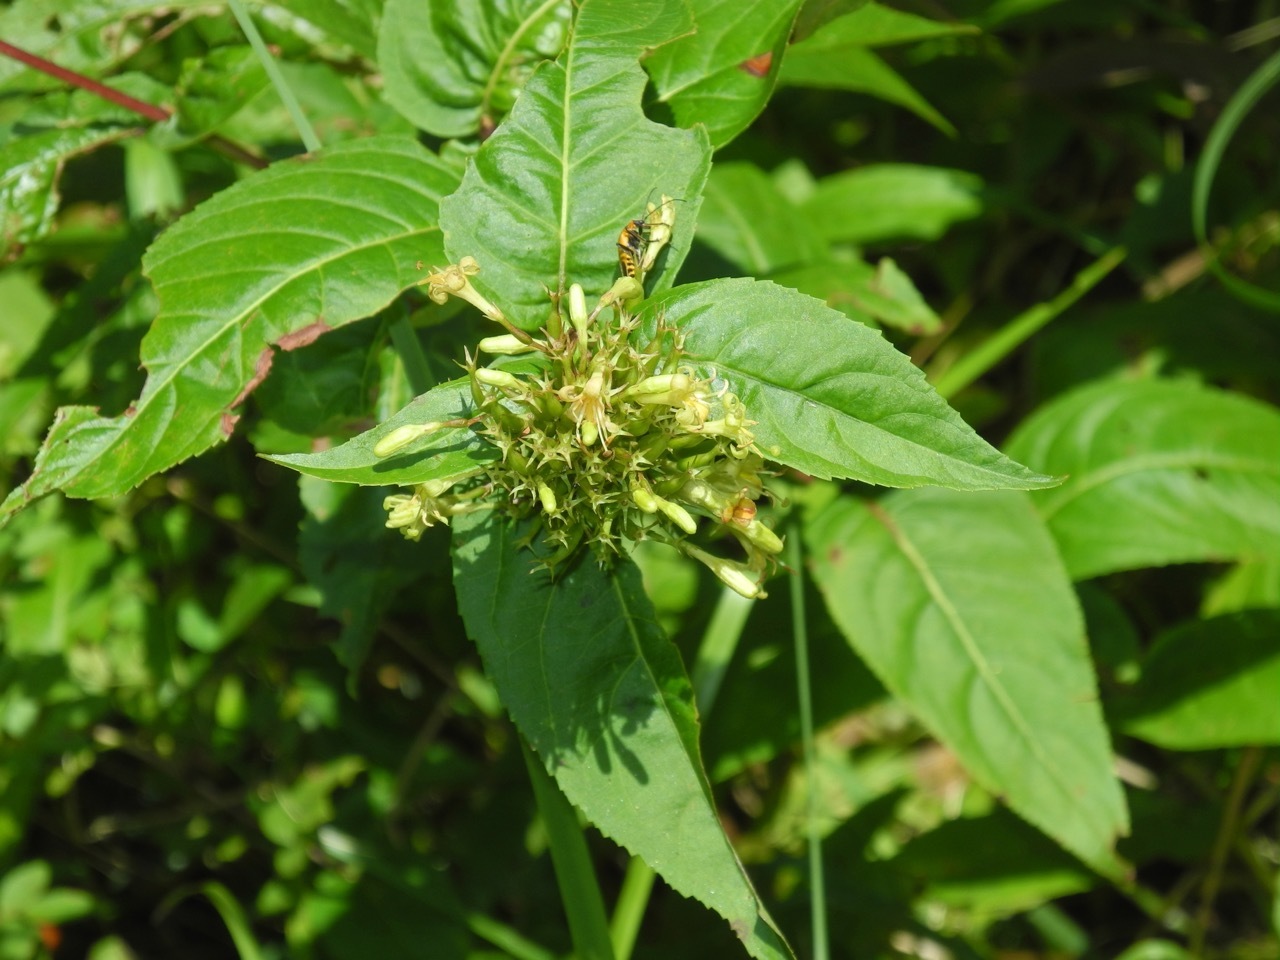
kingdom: Plantae
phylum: Tracheophyta
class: Magnoliopsida
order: Dipsacales
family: Caprifoliaceae
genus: Diervilla
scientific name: Diervilla sessilifolia
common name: Bush-honeysuckle
